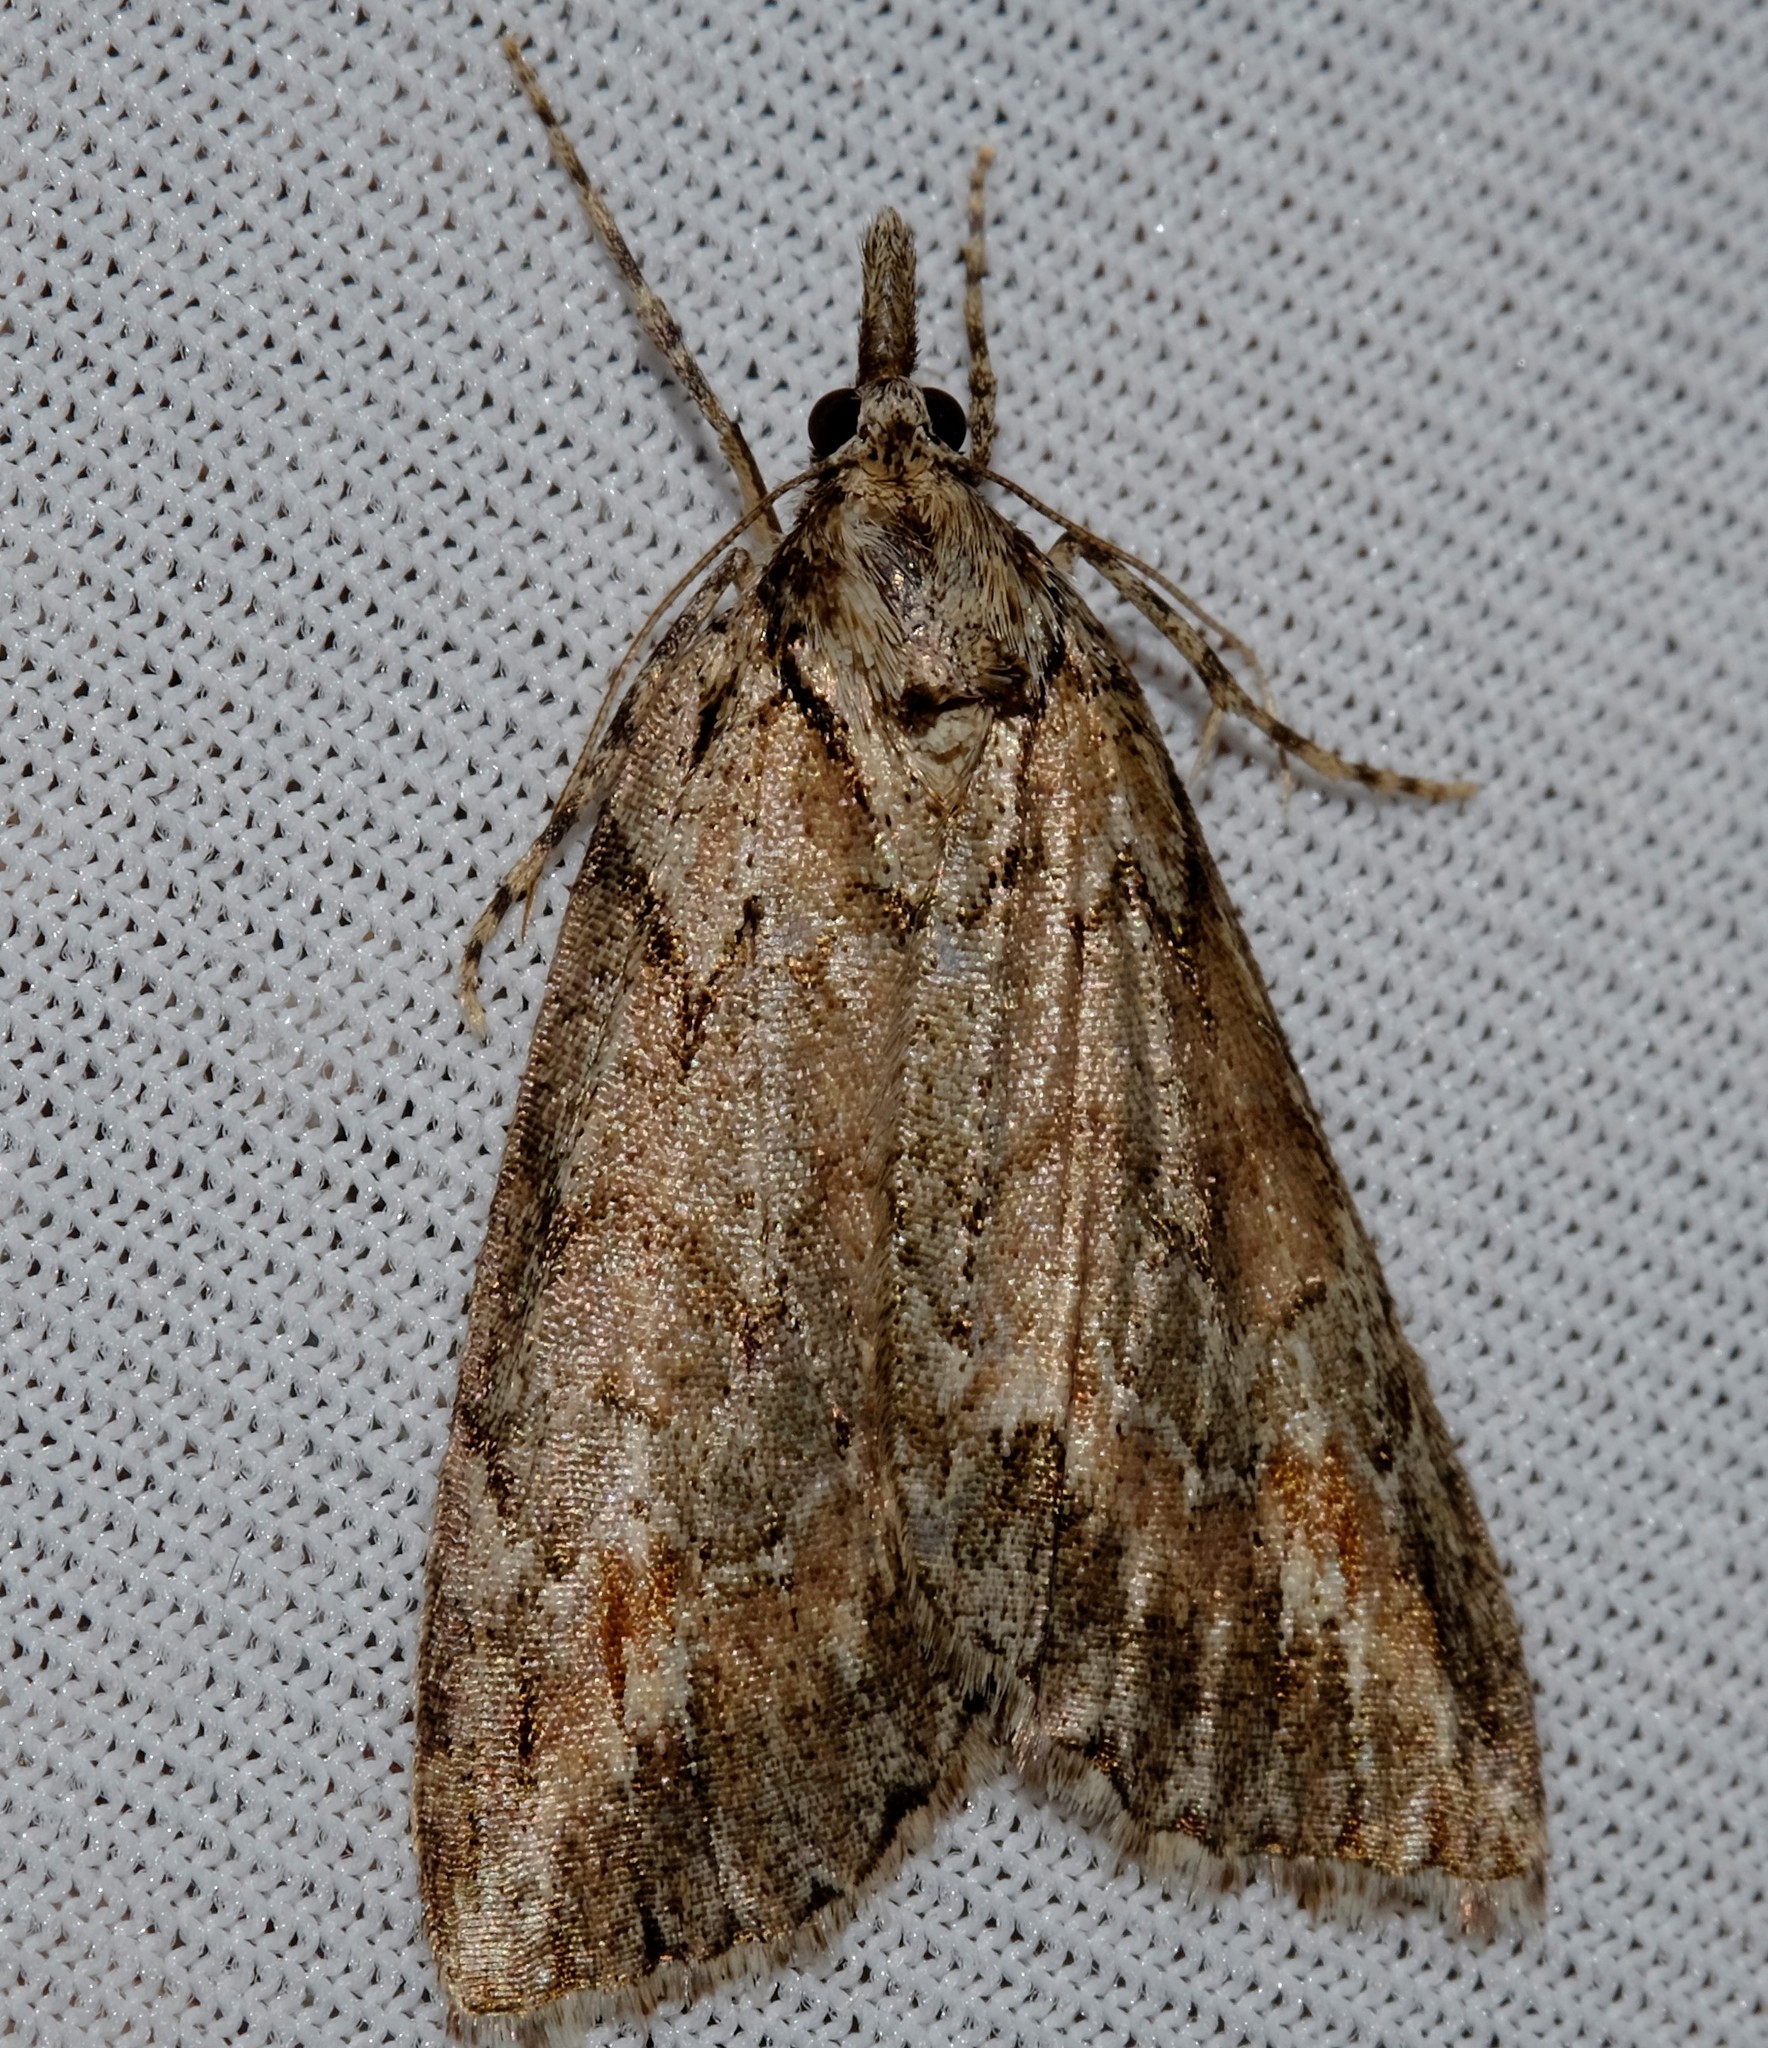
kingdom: Animalia
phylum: Arthropoda
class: Insecta
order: Lepidoptera
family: Geometridae
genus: Mictodoca
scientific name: Mictodoca toxeuta
